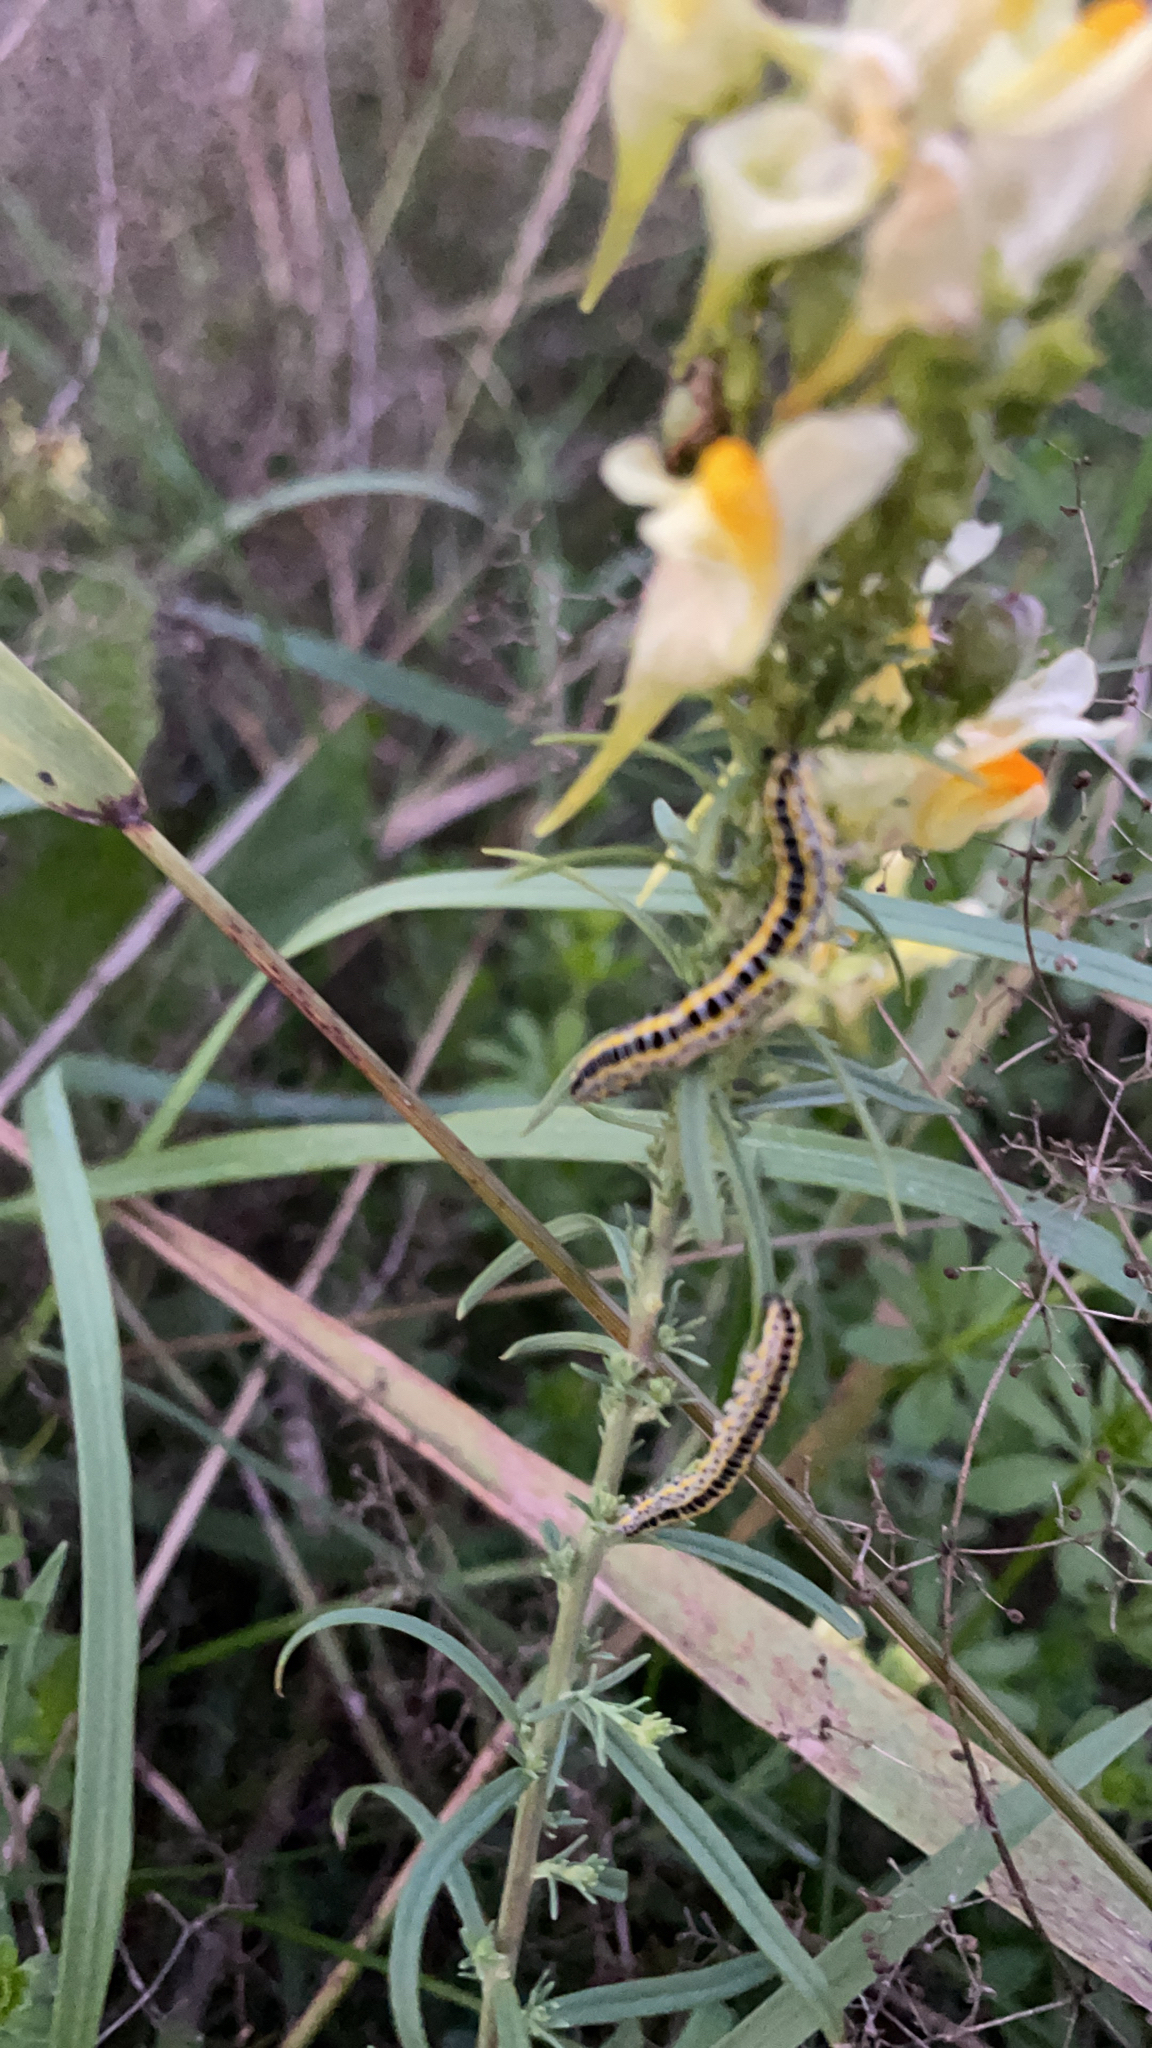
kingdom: Animalia
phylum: Arthropoda
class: Insecta
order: Lepidoptera
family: Noctuidae
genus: Calophasia
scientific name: Calophasia lunula
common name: Toadflax brocade
